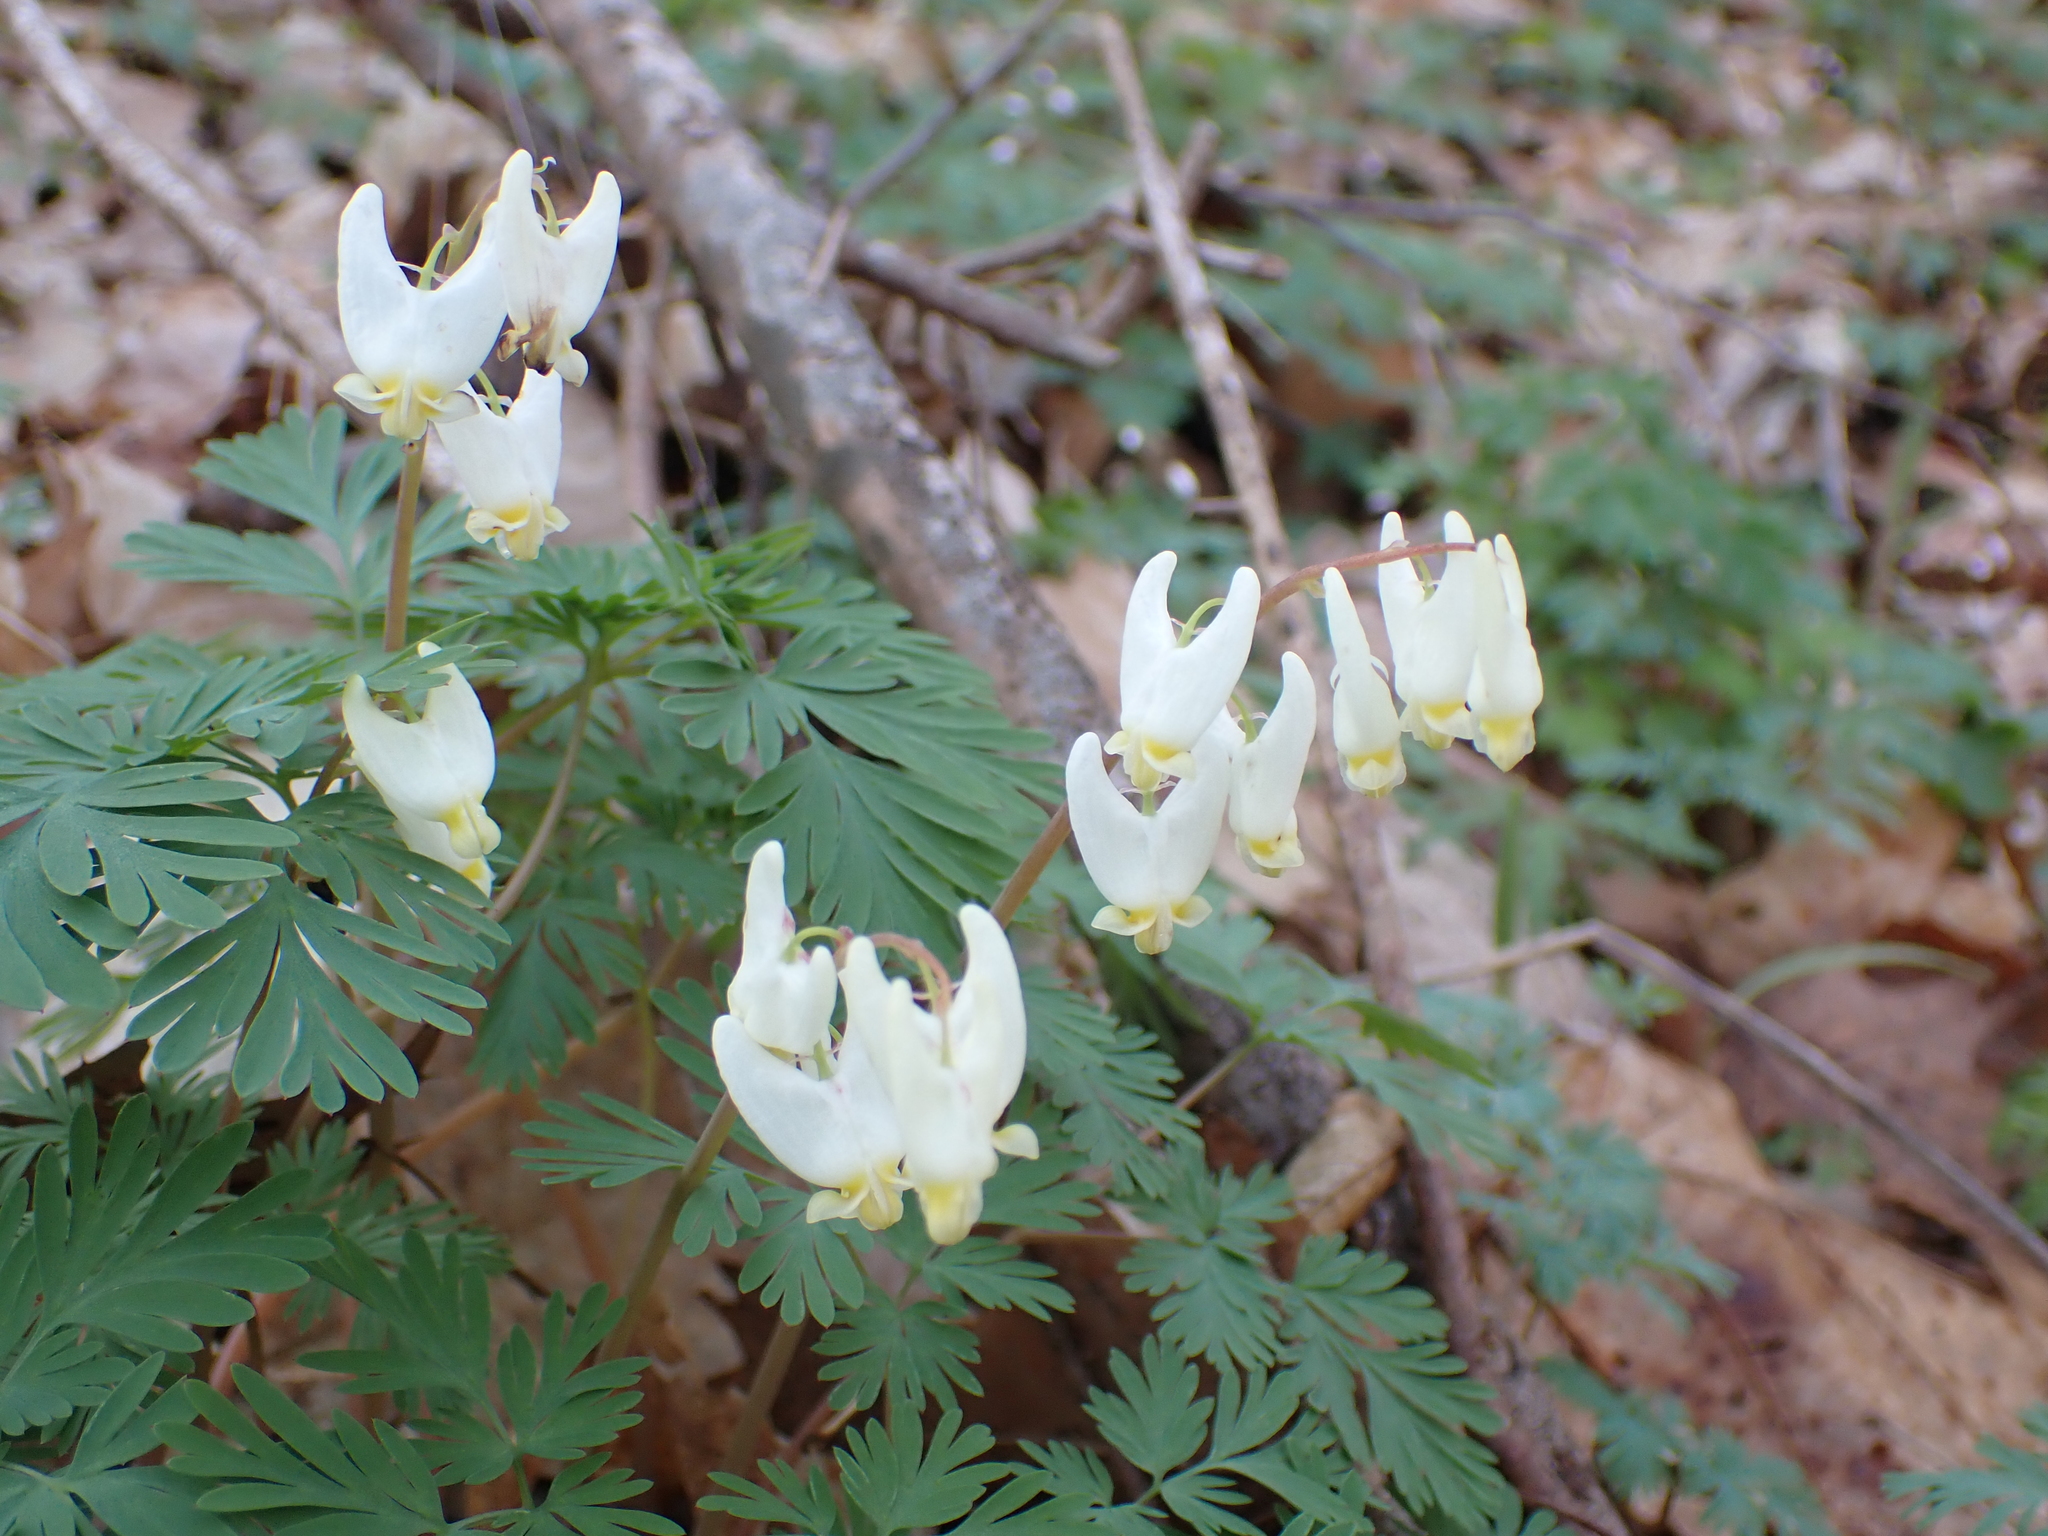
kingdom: Plantae
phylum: Tracheophyta
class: Magnoliopsida
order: Ranunculales
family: Papaveraceae
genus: Dicentra
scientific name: Dicentra cucullaria
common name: Dutchman's breeches
